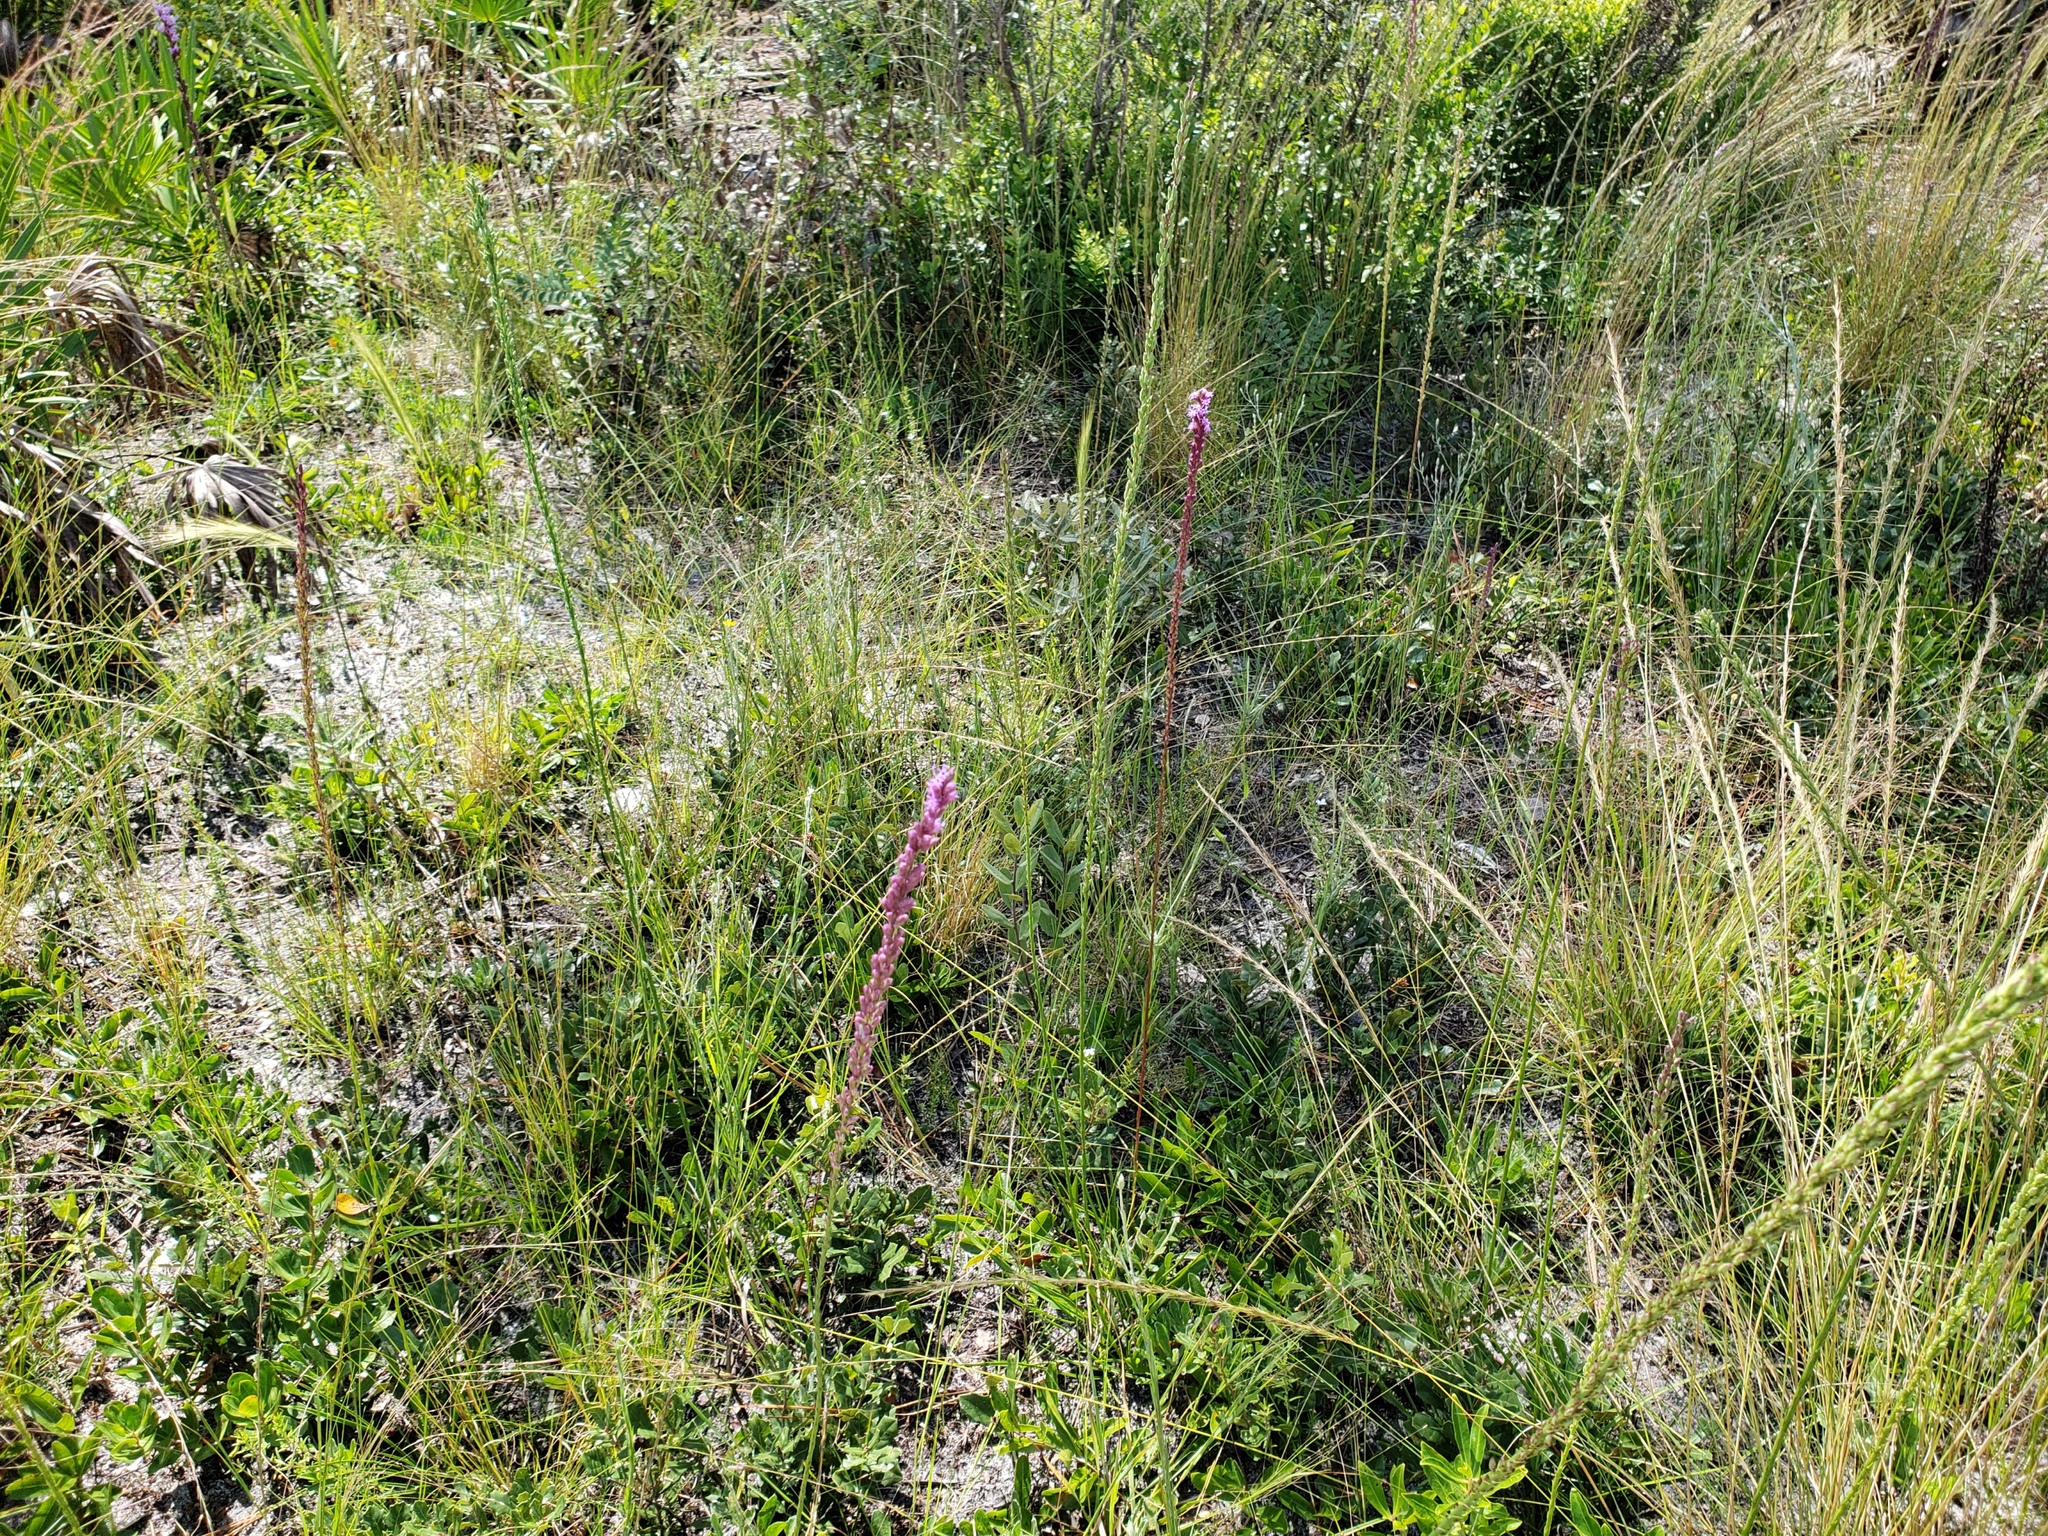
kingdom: Plantae
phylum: Tracheophyta
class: Magnoliopsida
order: Asterales
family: Asteraceae
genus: Liatris
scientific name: Liatris quadriflora
